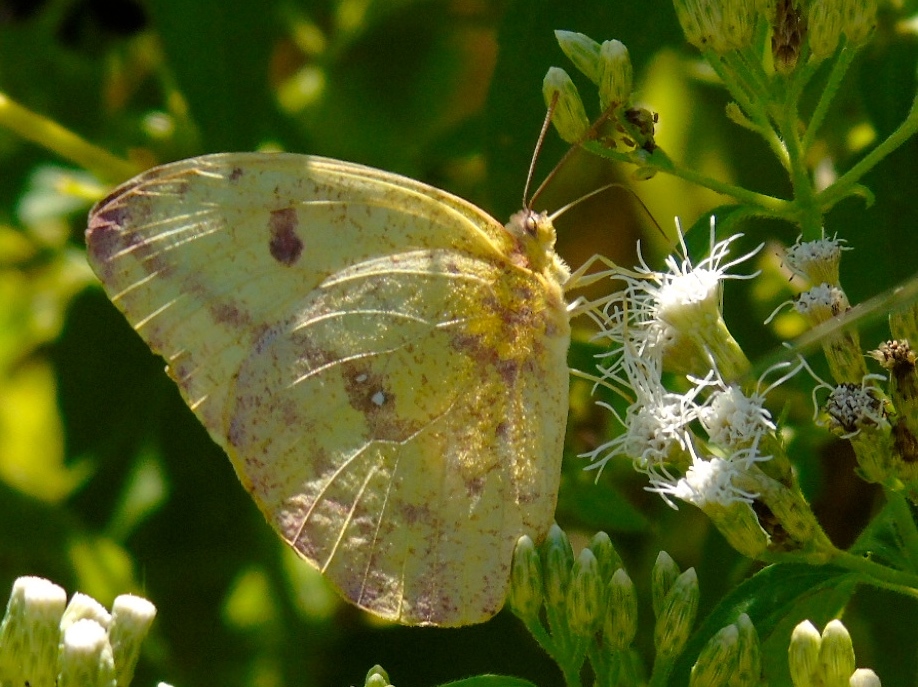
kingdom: Animalia
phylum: Arthropoda
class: Insecta
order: Lepidoptera
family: Pieridae
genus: Phoebis
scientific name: Phoebis
